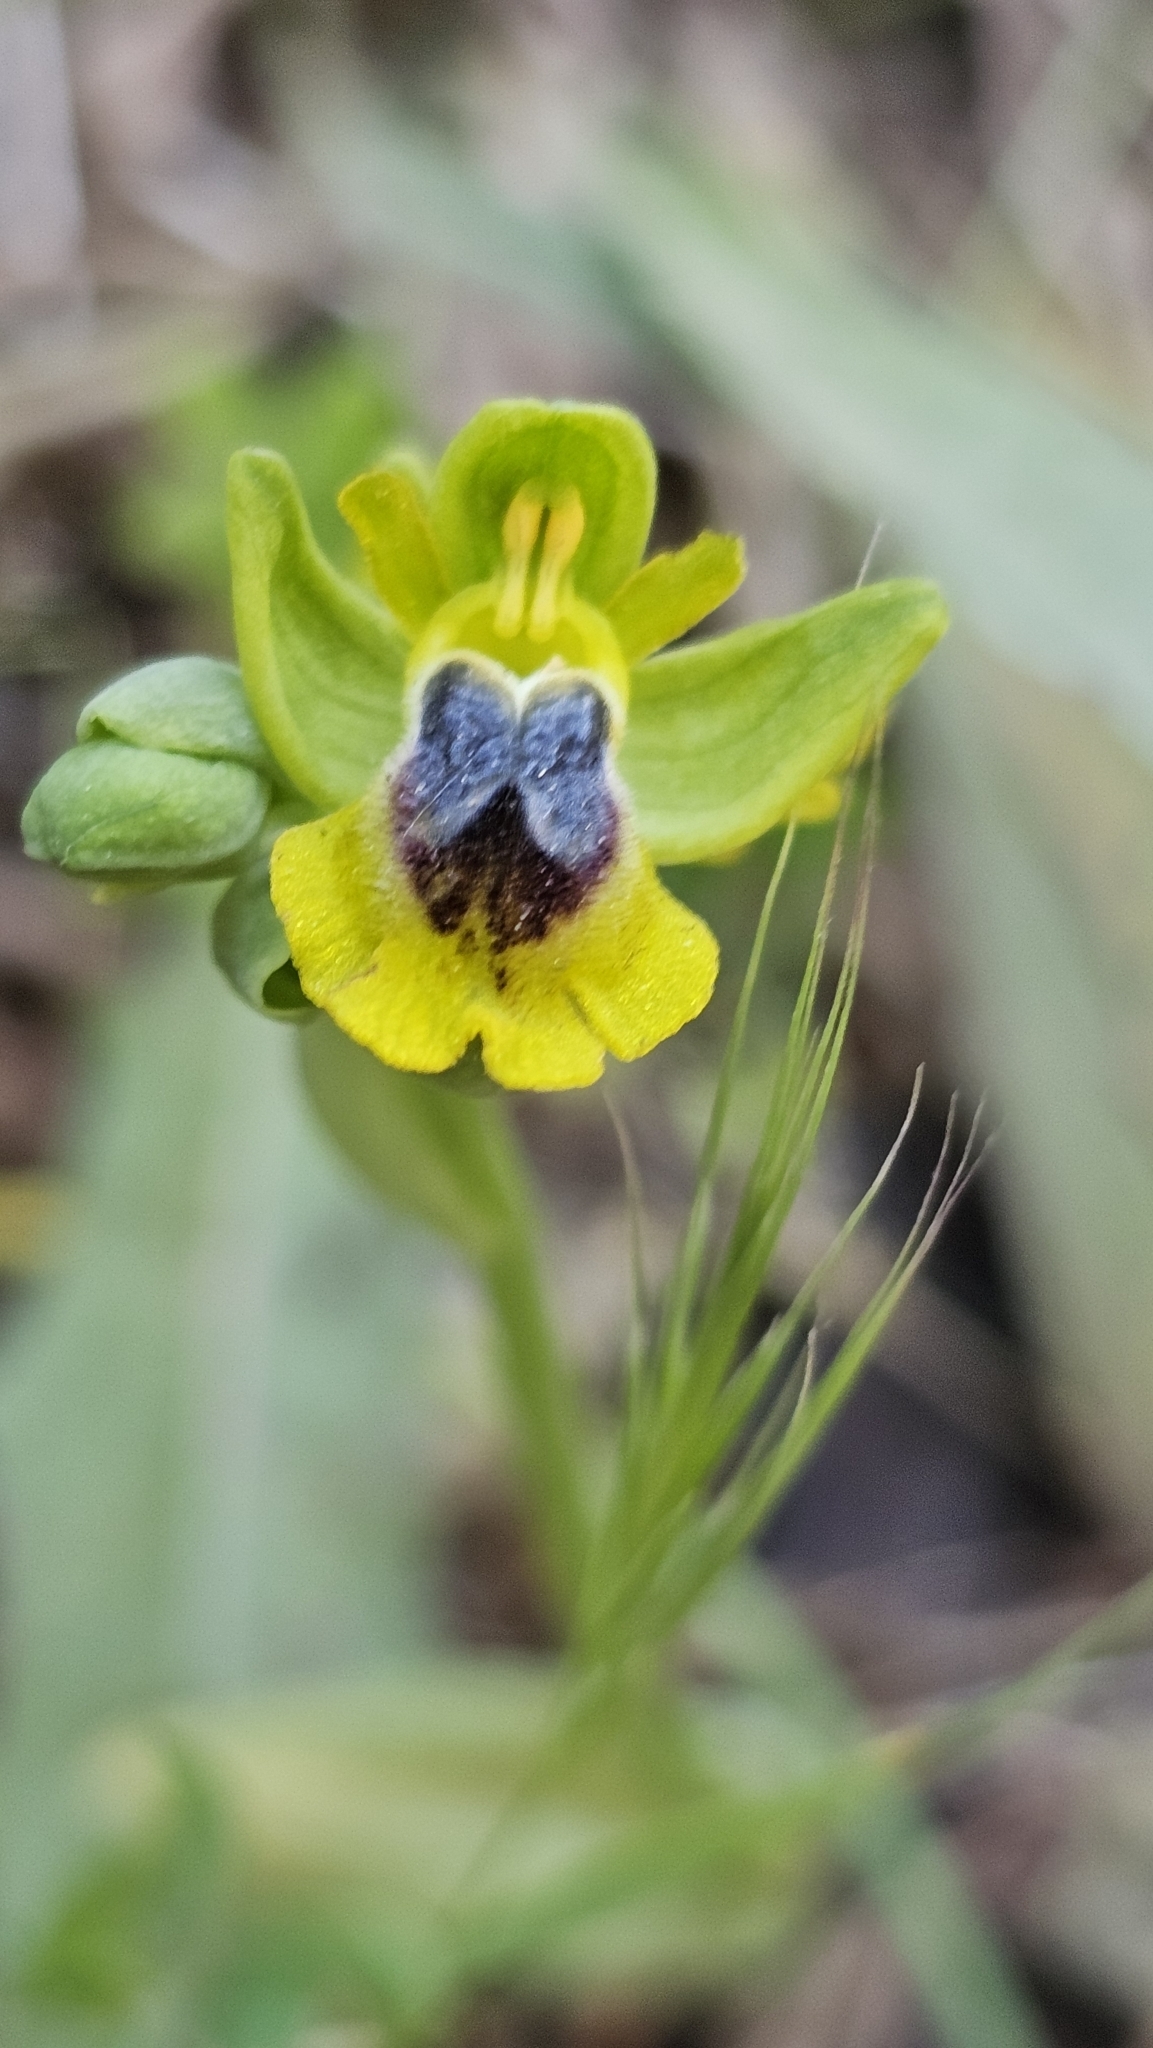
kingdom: Plantae
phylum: Tracheophyta
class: Liliopsida
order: Asparagales
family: Orchidaceae
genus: Ophrys
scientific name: Ophrys lutea
